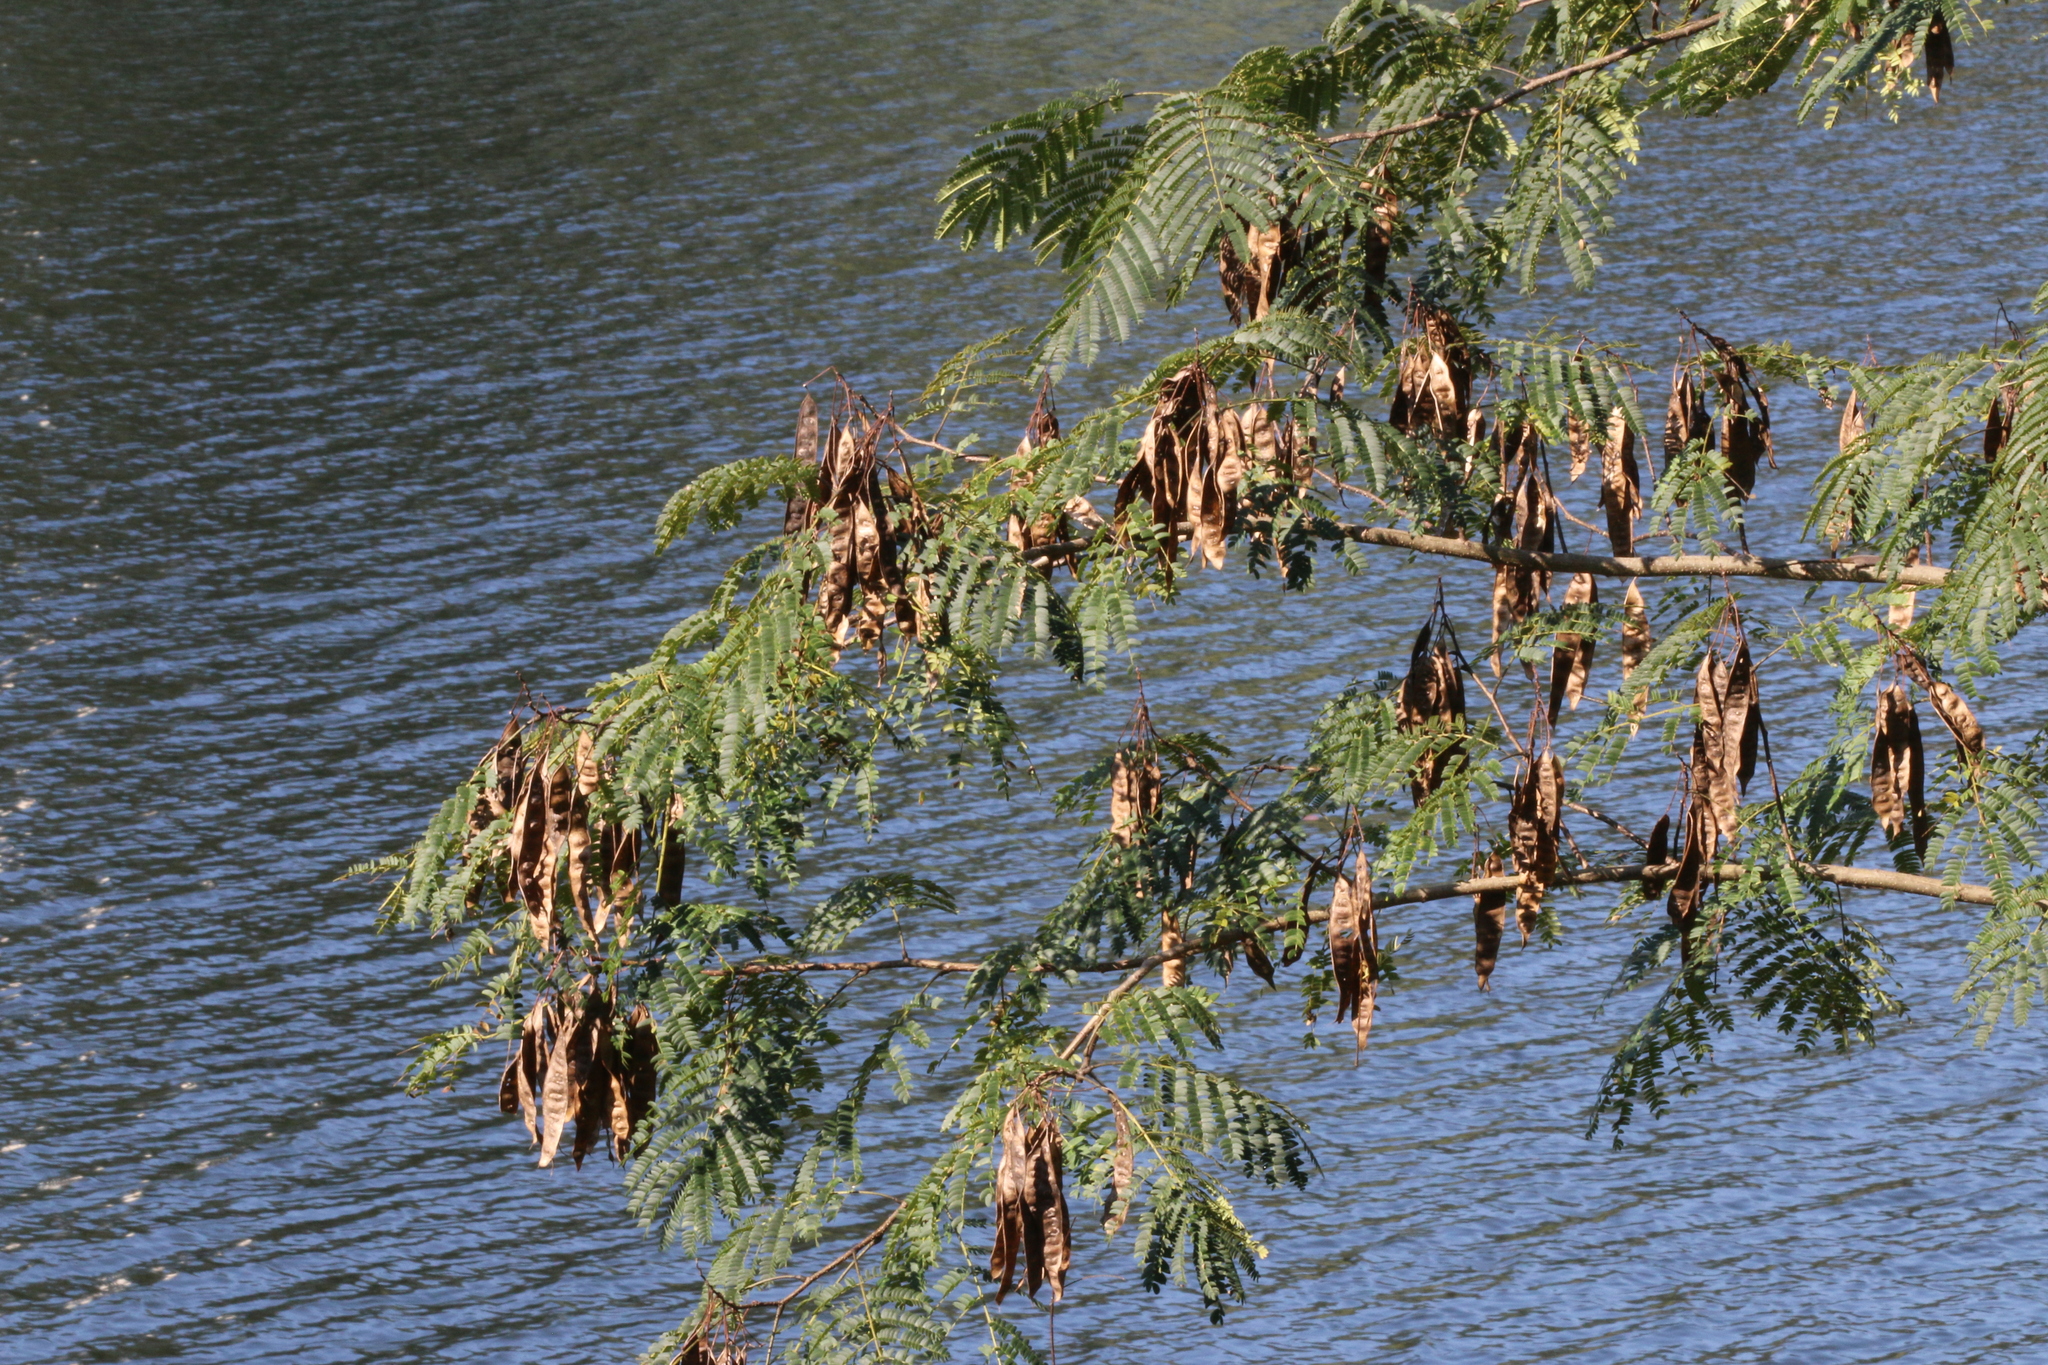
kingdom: Plantae
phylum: Tracheophyta
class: Magnoliopsida
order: Fabales
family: Fabaceae
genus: Albizia
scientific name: Albizia julibrissin
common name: Silktree
